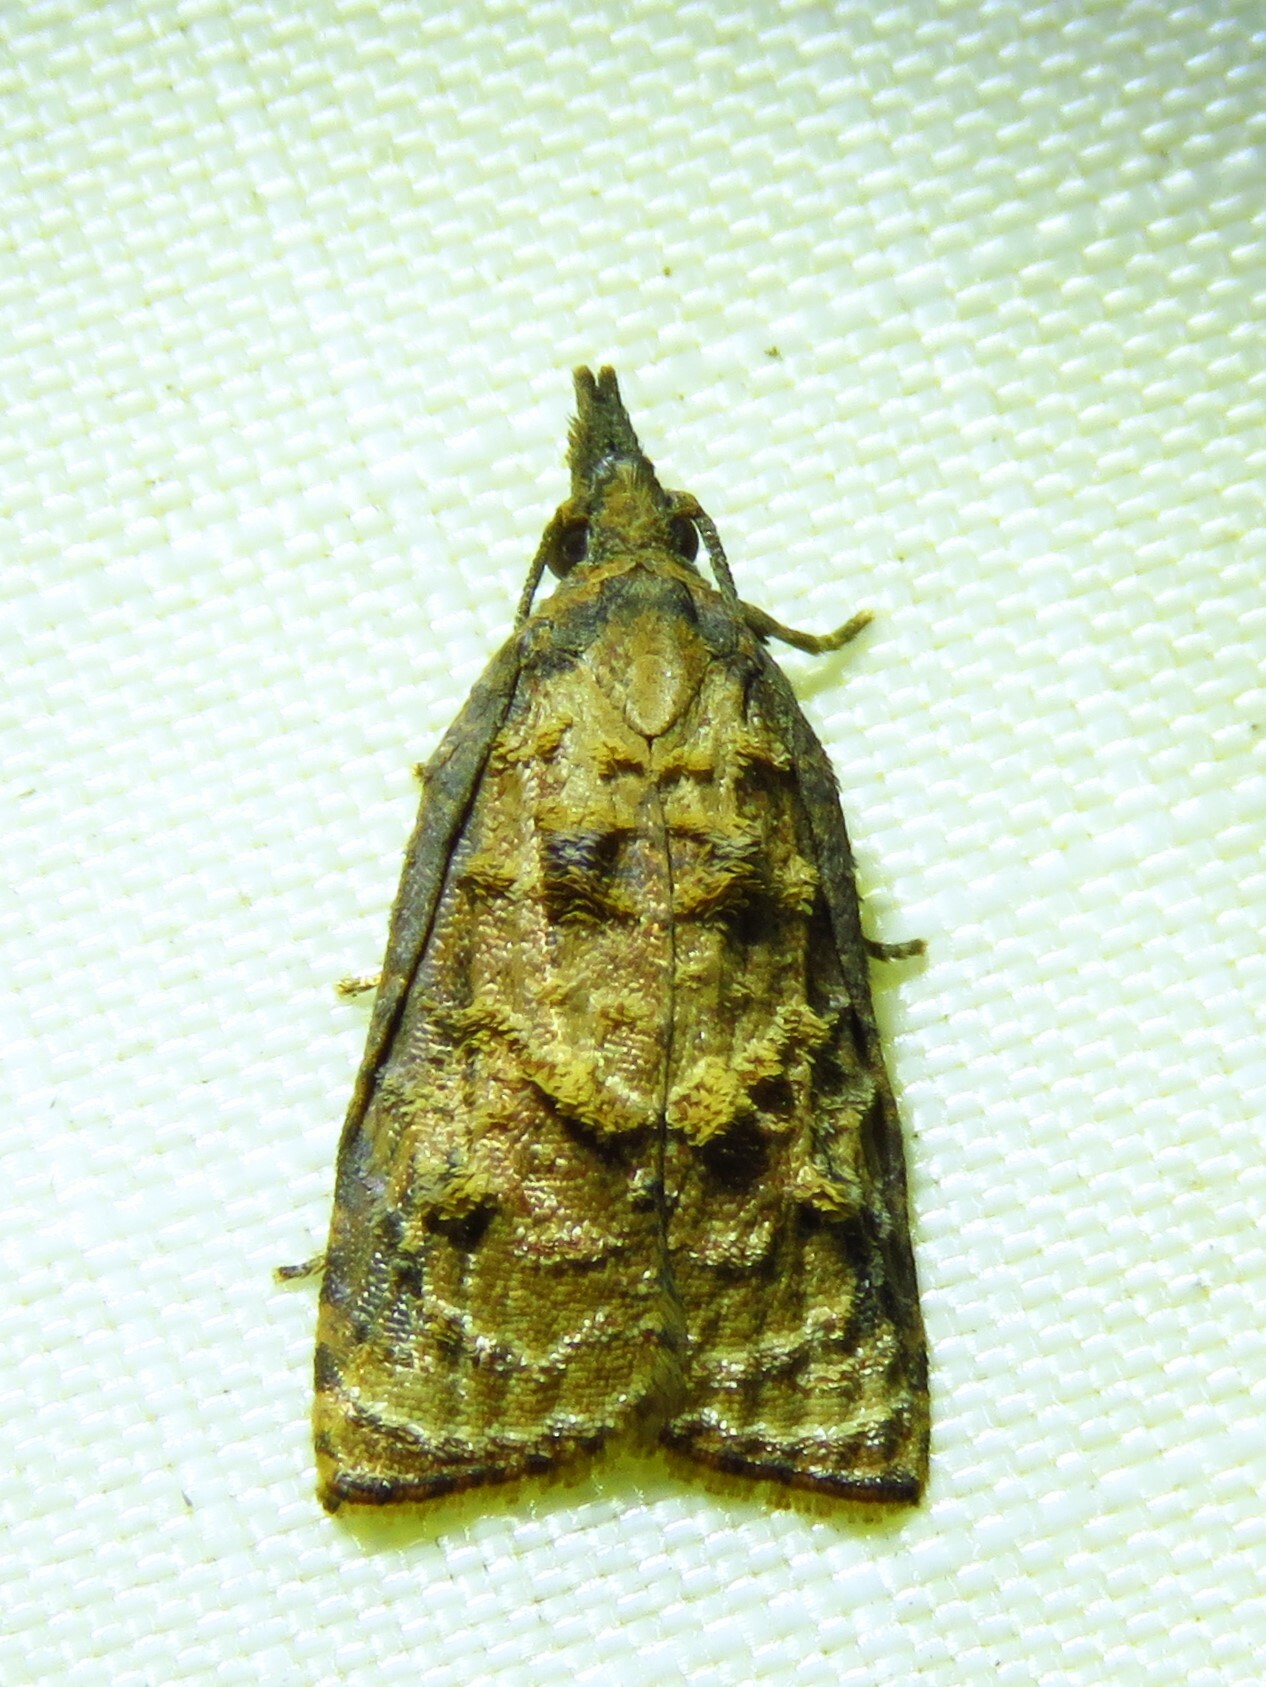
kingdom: Animalia
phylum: Arthropoda
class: Insecta
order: Lepidoptera
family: Tortricidae
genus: Platynota
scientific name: Platynota rostrana
